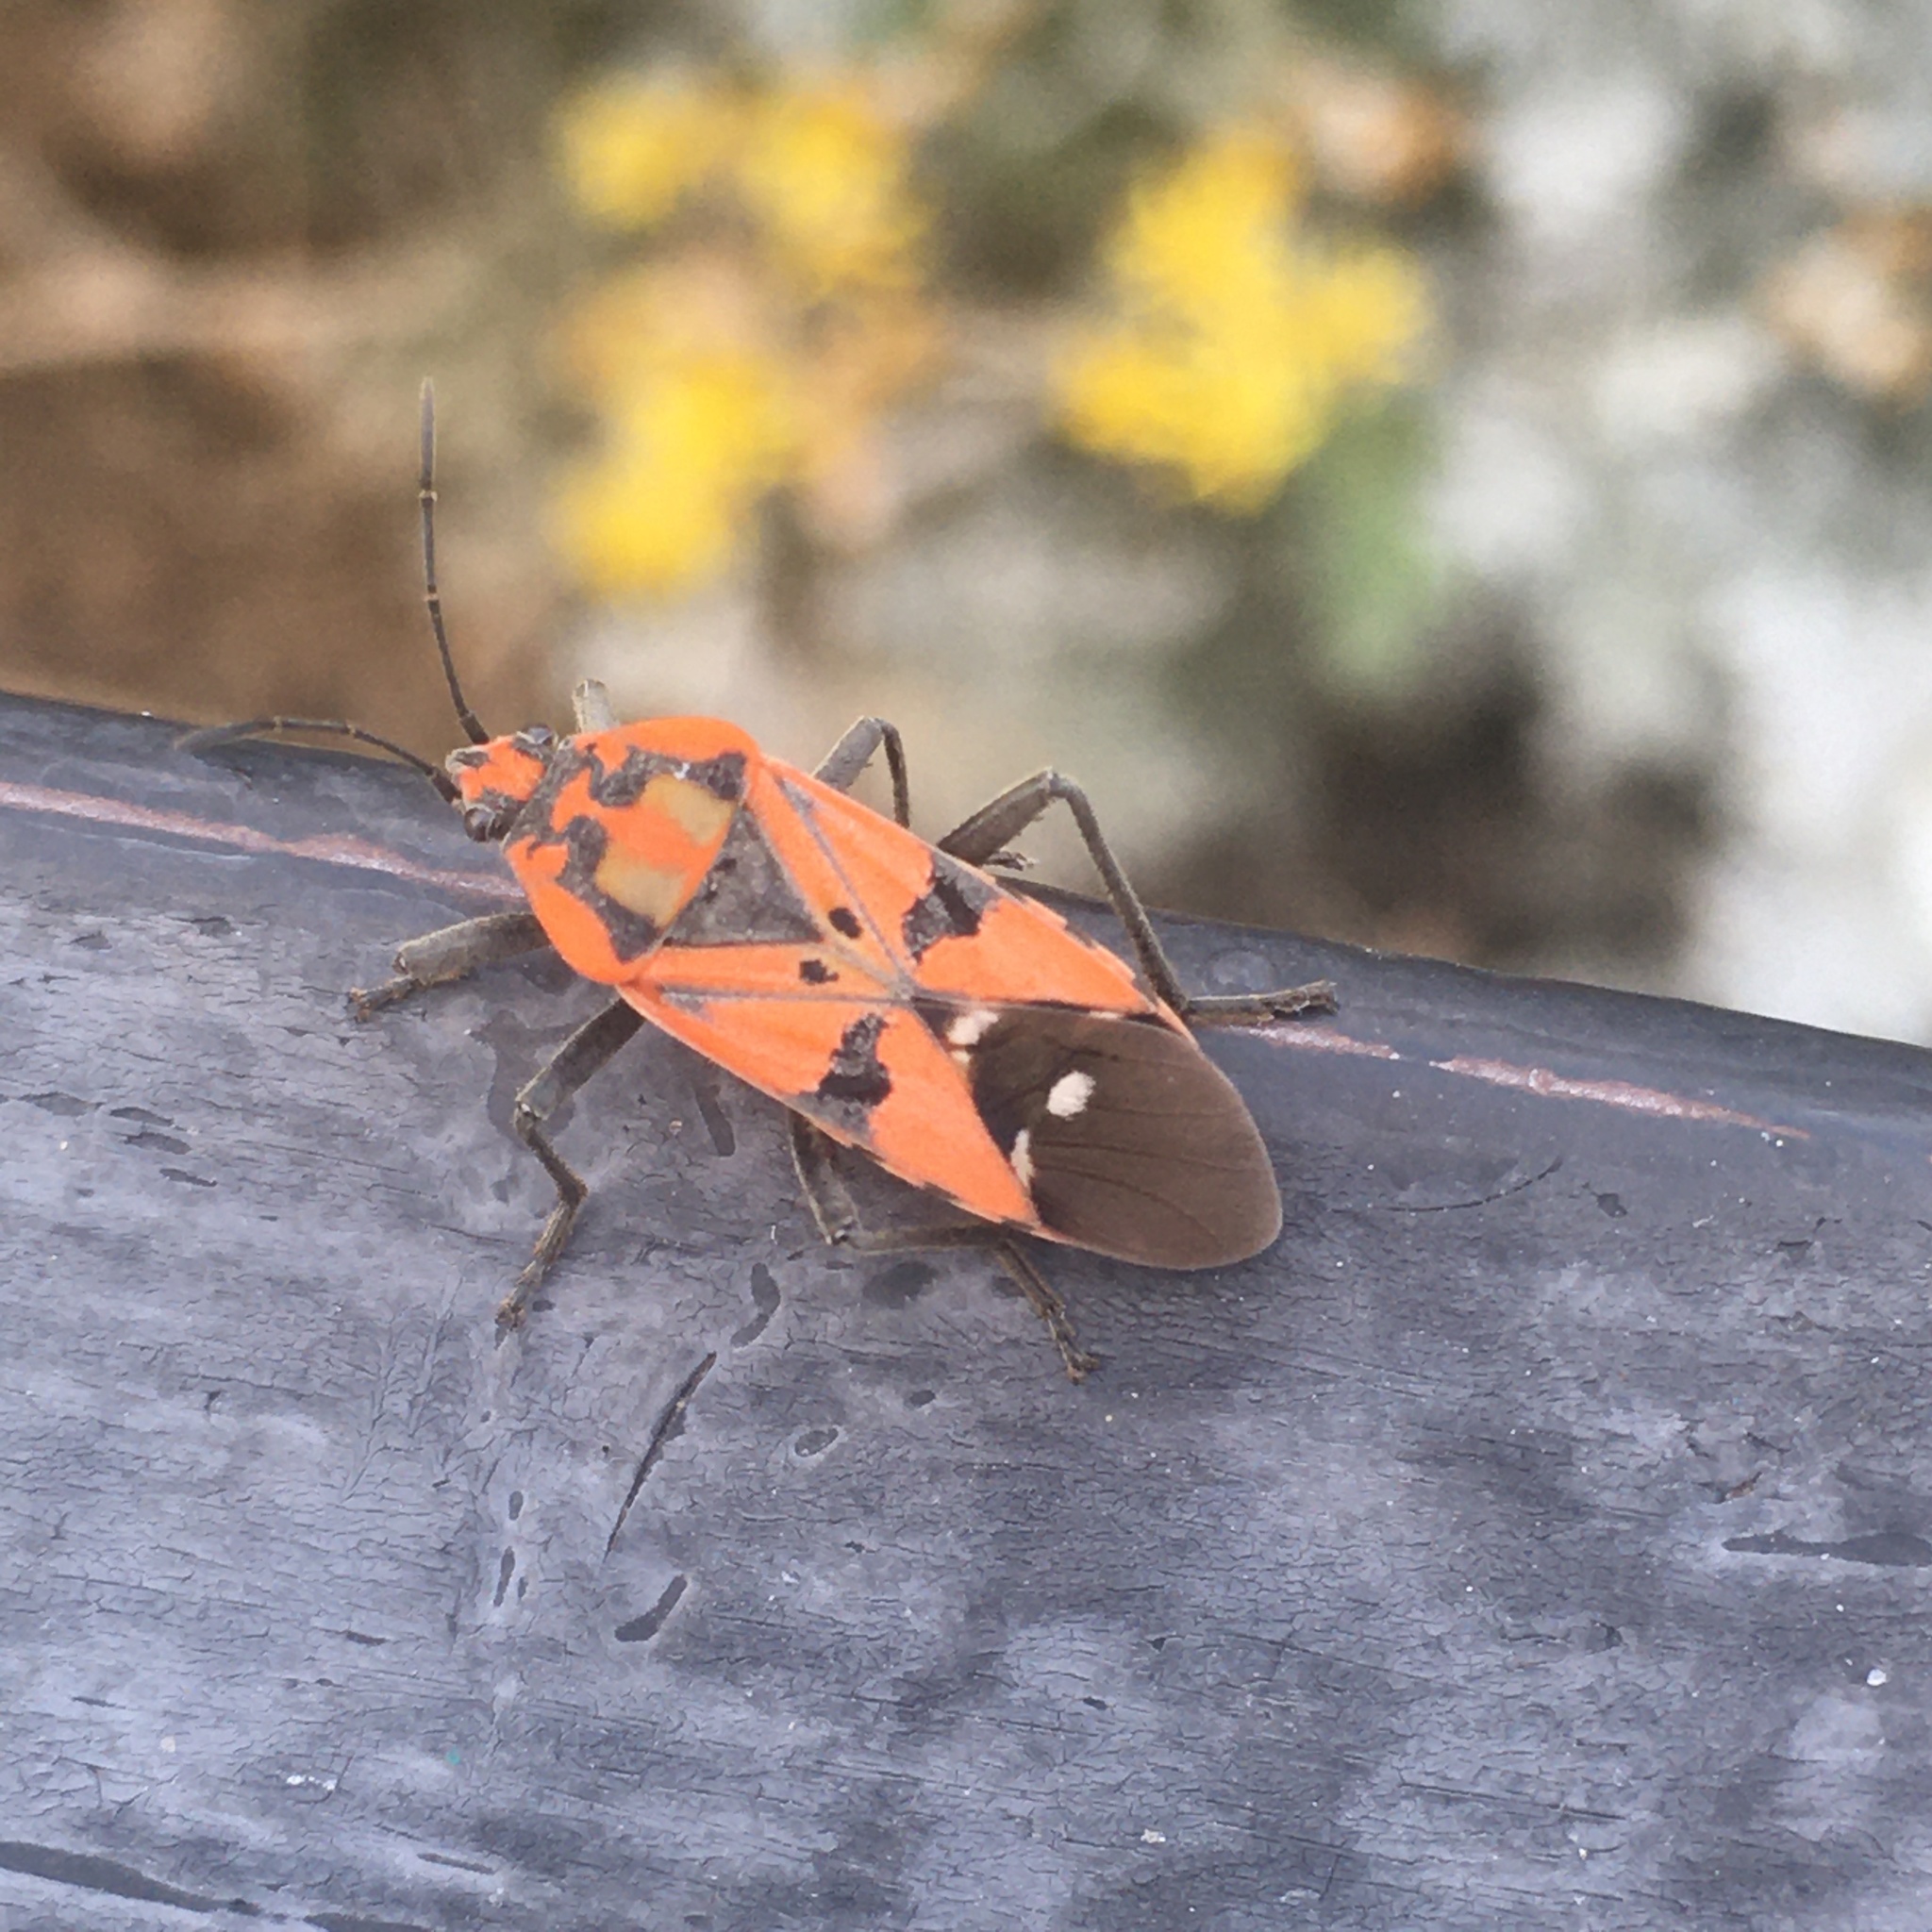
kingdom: Animalia
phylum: Arthropoda
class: Insecta
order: Hemiptera
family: Lygaeidae
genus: Spilostethus
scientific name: Spilostethus pandurus
